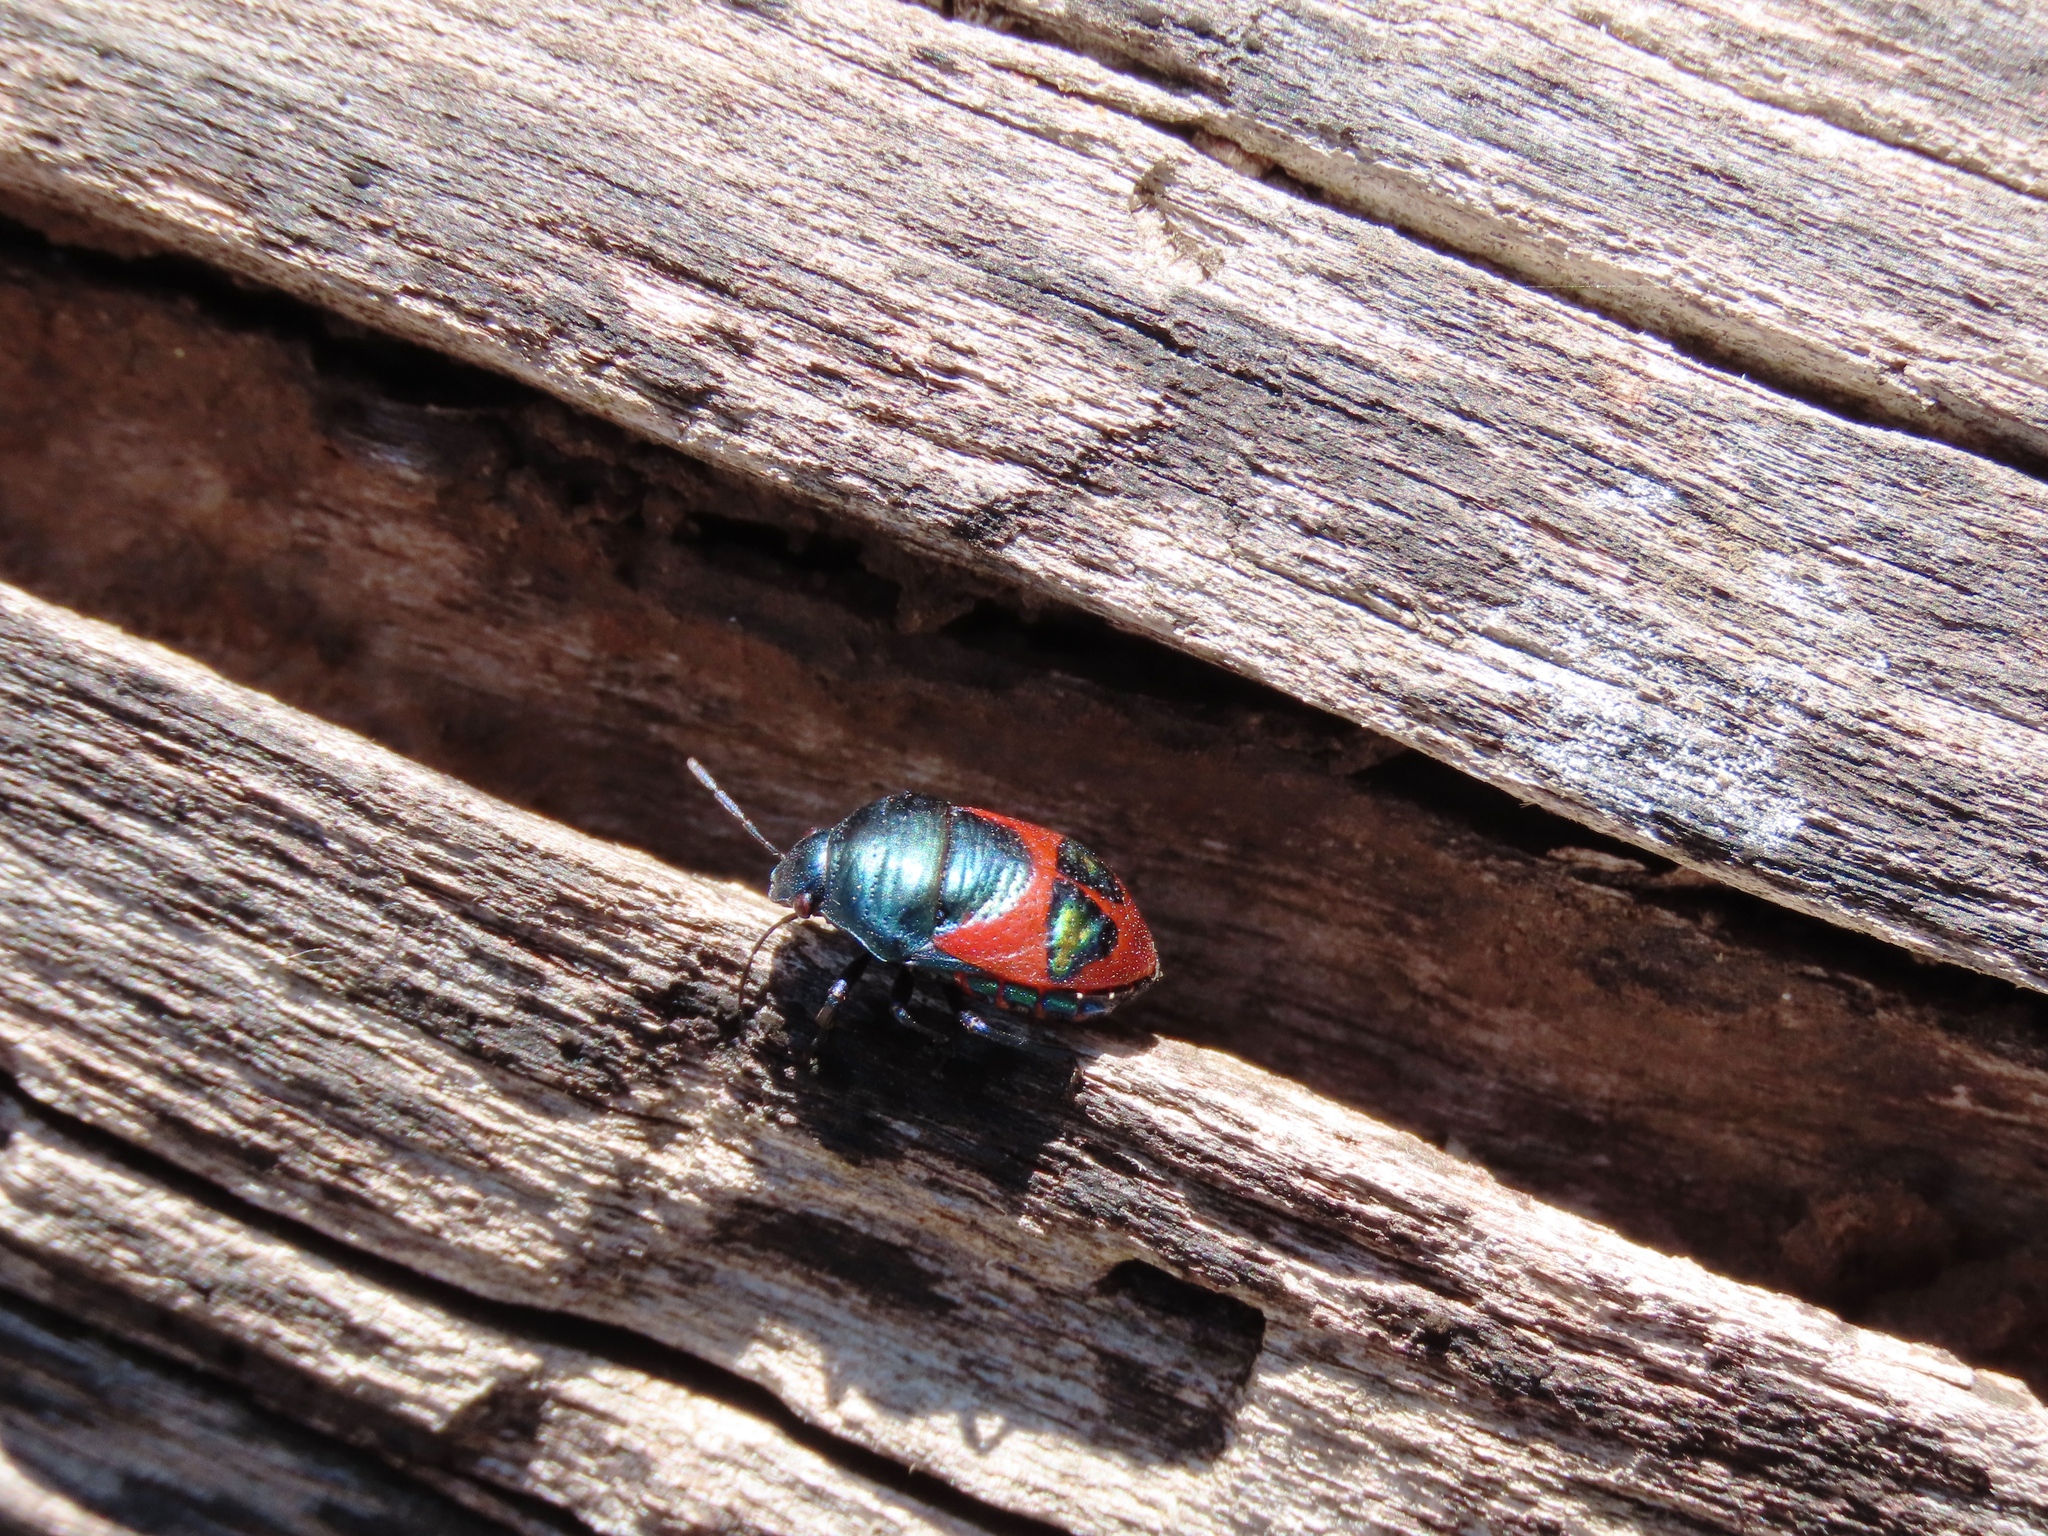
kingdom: Animalia
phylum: Arthropoda
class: Insecta
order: Hemiptera
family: Scutelleridae
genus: Choerocoris
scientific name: Choerocoris paganus
